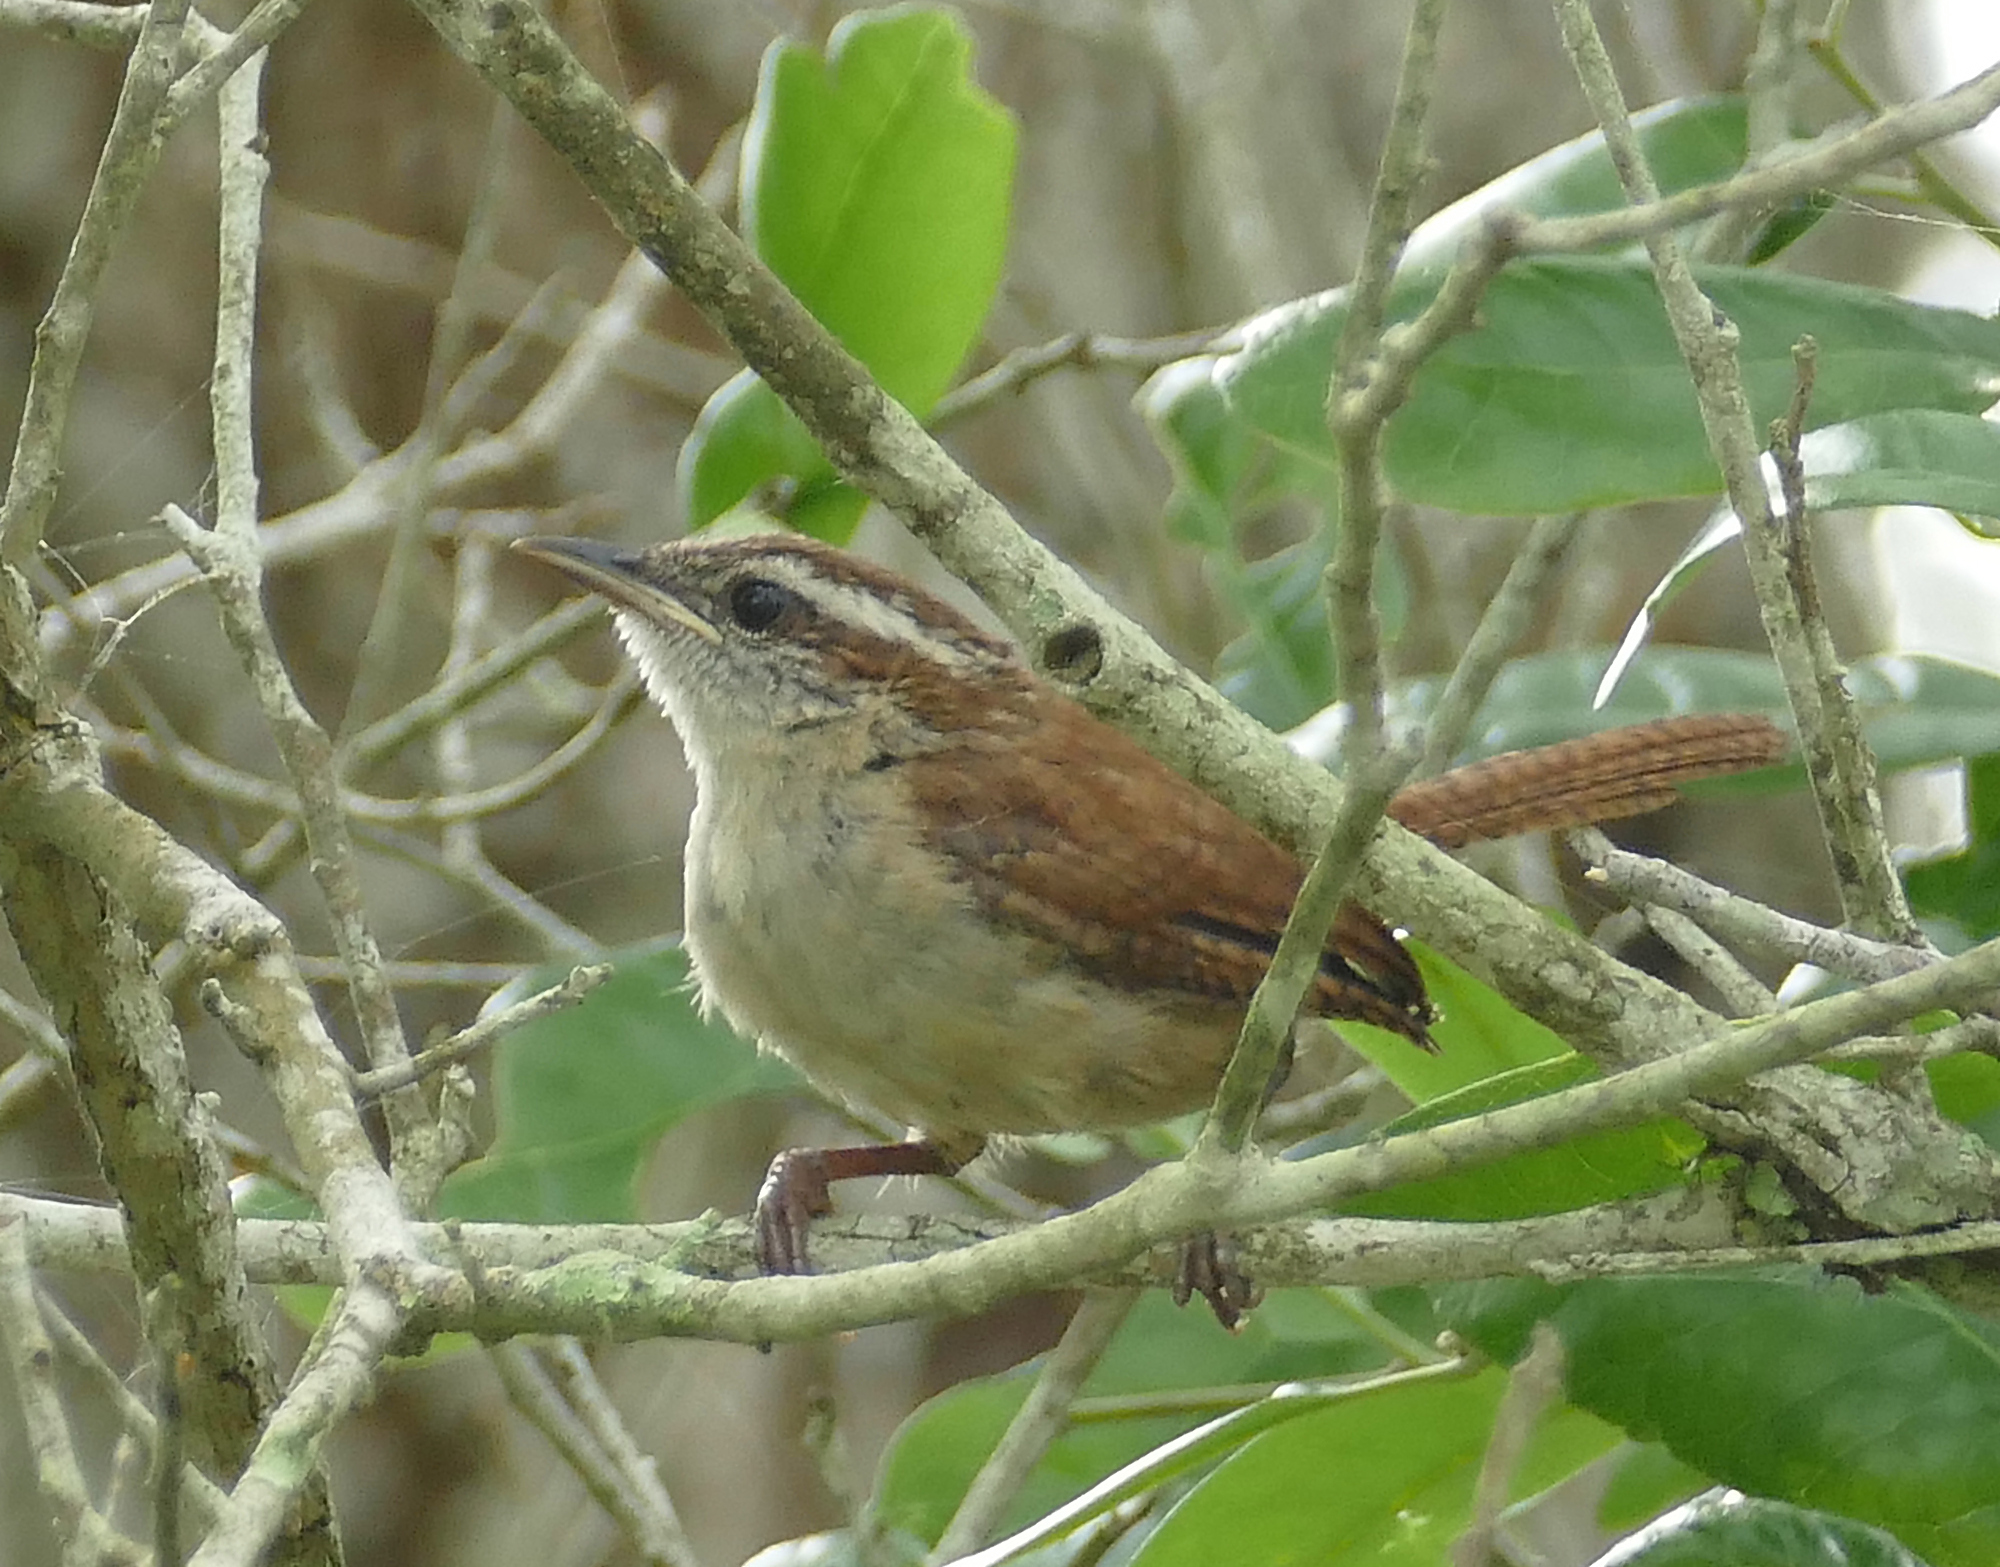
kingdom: Animalia
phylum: Chordata
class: Aves
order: Passeriformes
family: Troglodytidae
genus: Thryothorus
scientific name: Thryothorus ludovicianus
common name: Carolina wren
